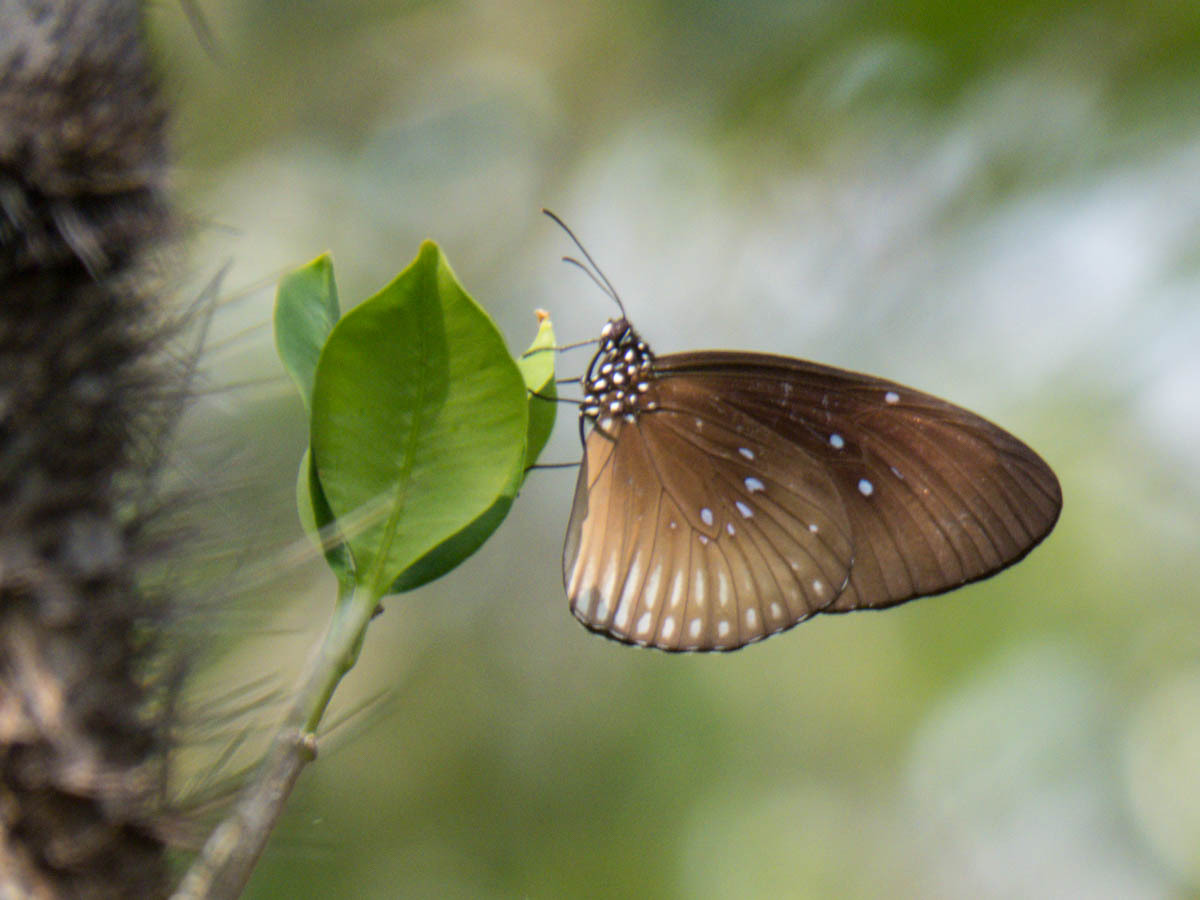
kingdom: Animalia
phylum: Arthropoda
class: Insecta
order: Lepidoptera
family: Nymphalidae
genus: Euploea
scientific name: Euploea eyndhovii
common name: Striped black crow butterfly
